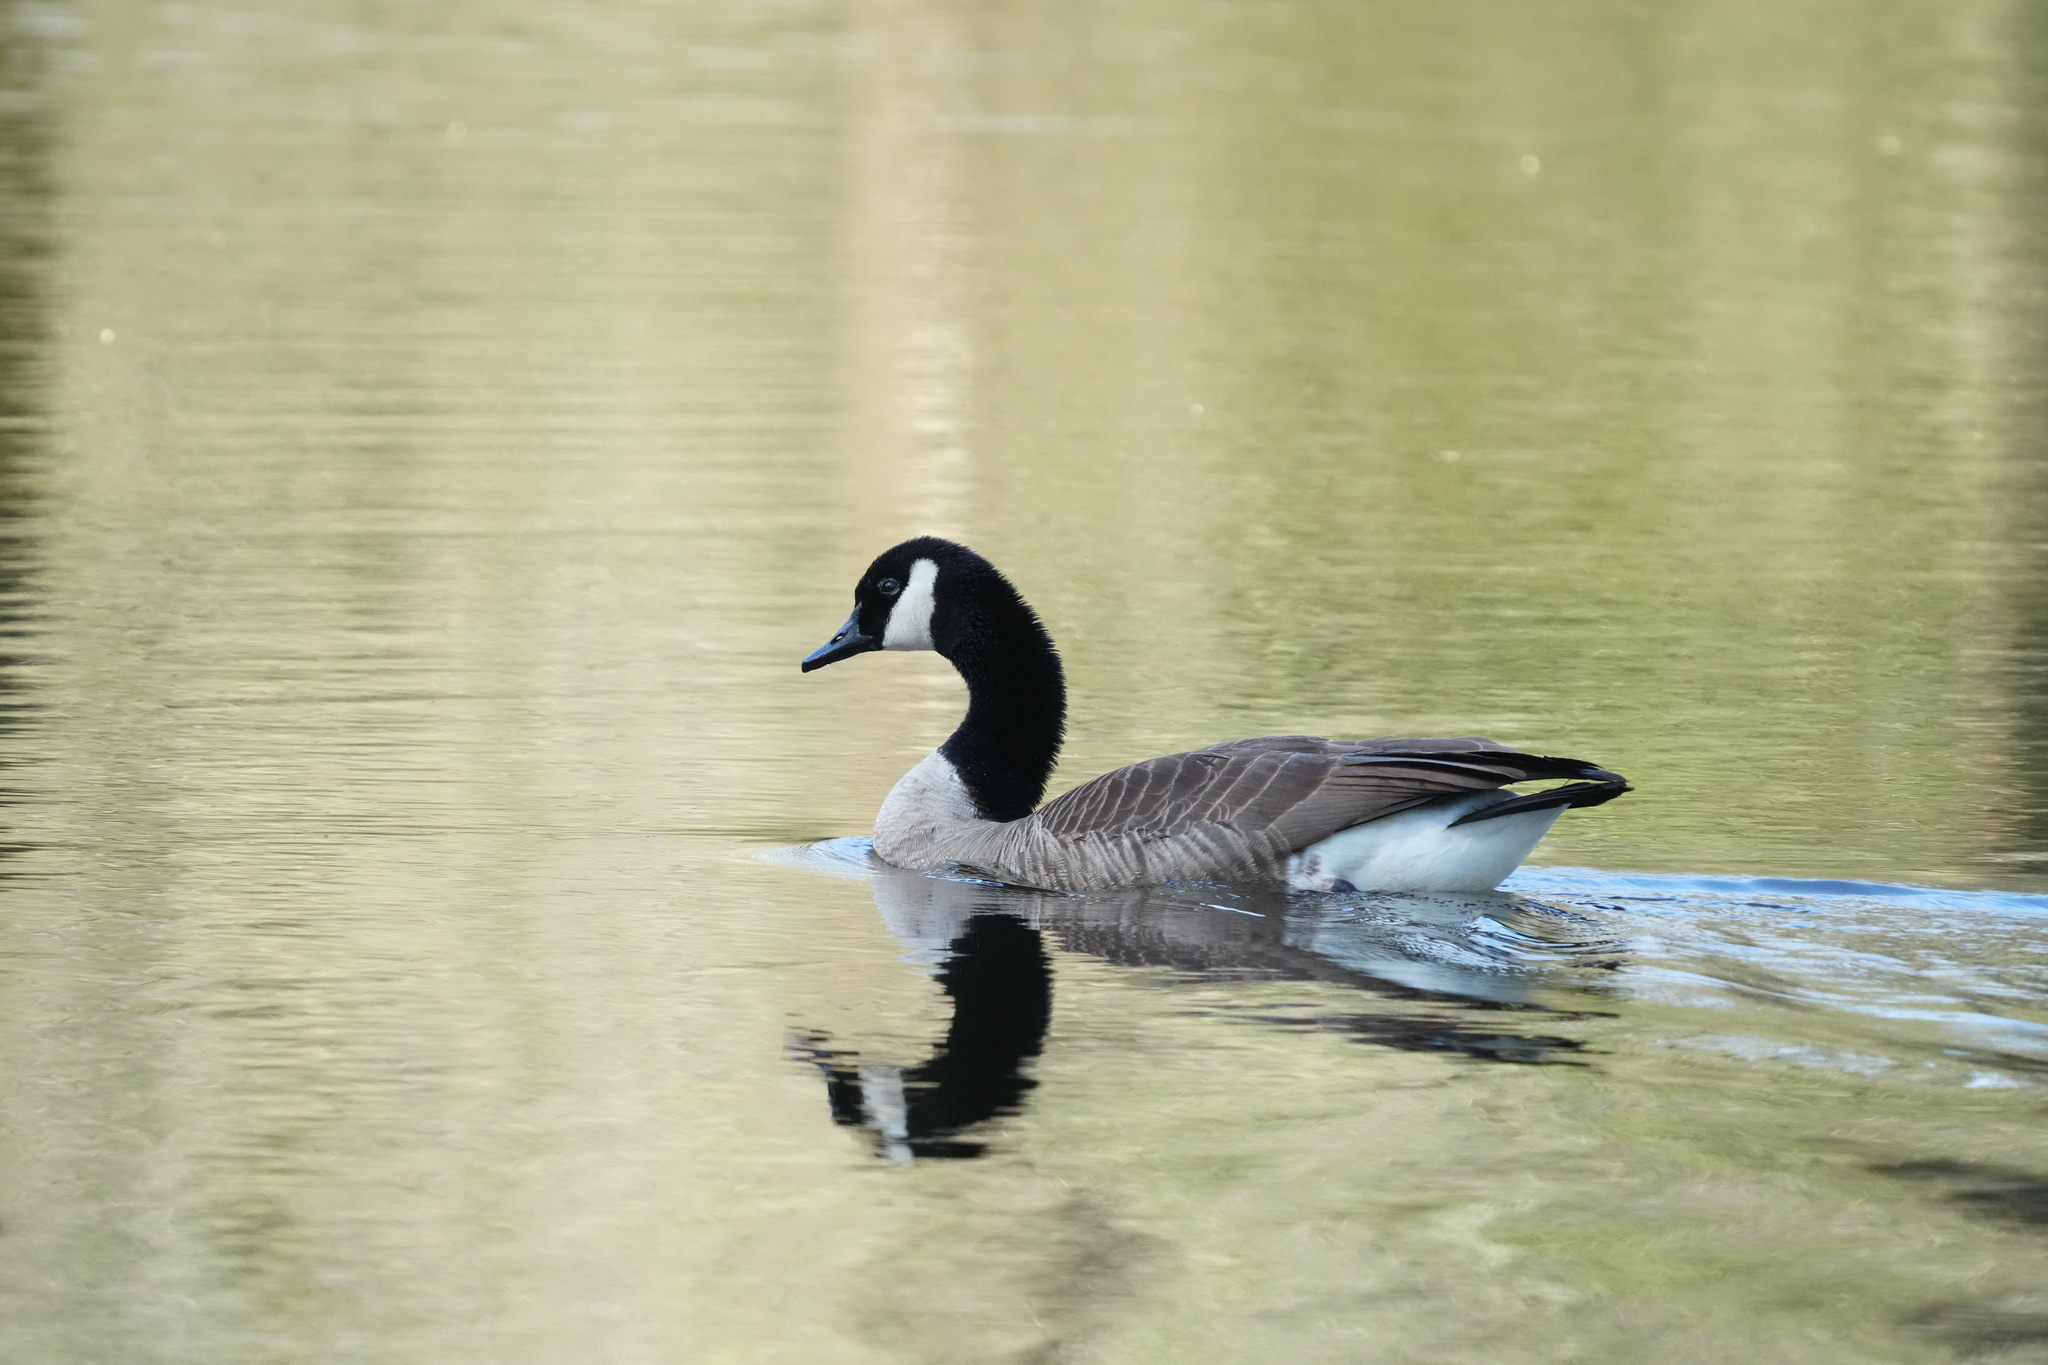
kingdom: Animalia
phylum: Chordata
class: Aves
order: Anseriformes
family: Anatidae
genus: Branta
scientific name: Branta canadensis
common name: Canada goose
